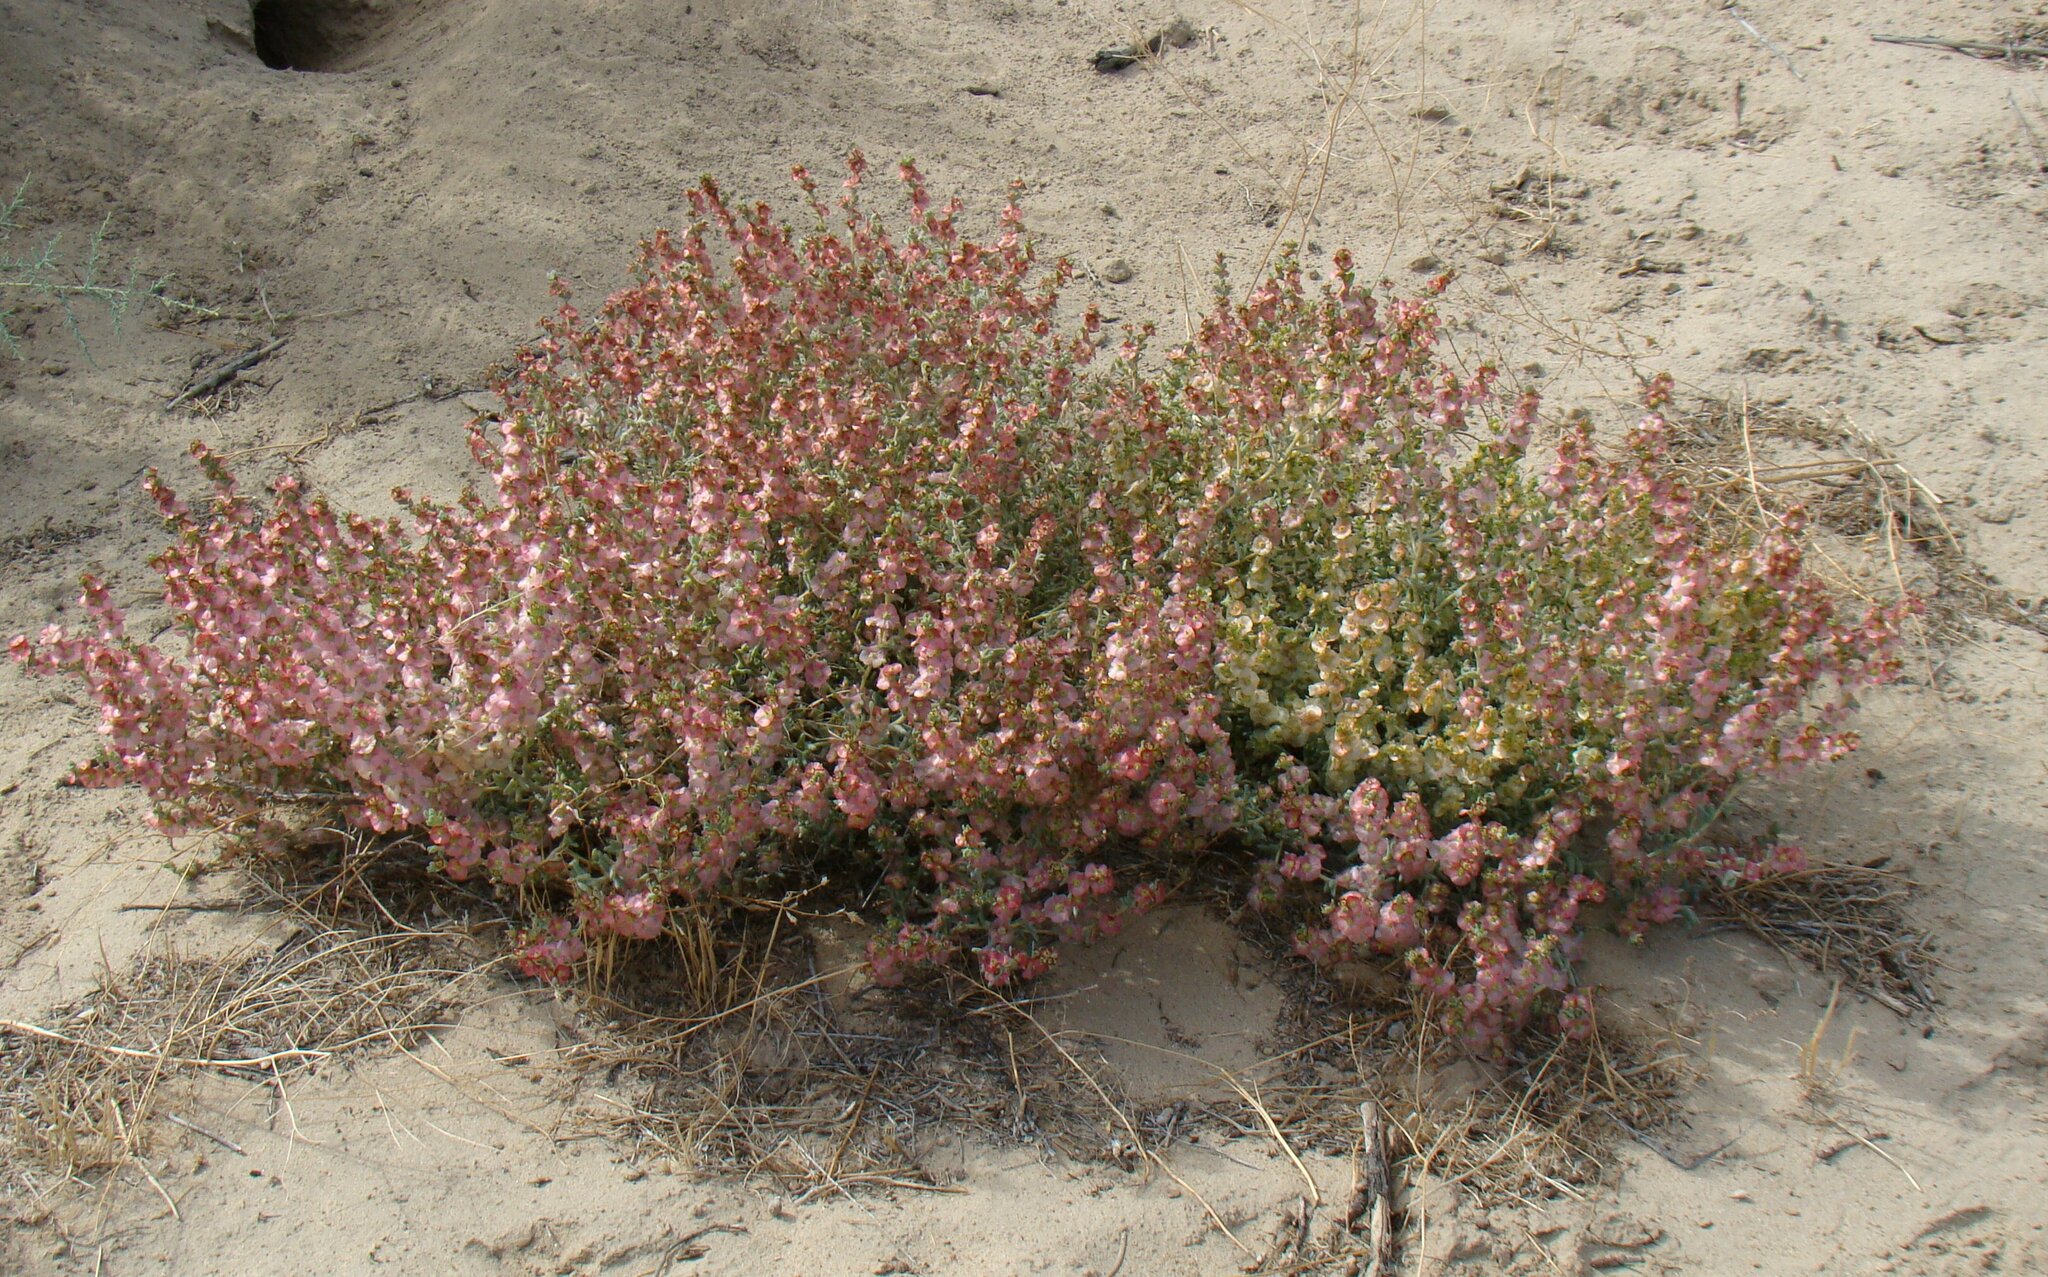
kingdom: Plantae
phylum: Tracheophyta
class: Magnoliopsida
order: Caryophyllales
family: Amaranthaceae
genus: Climacoptera
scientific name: Climacoptera lanata
